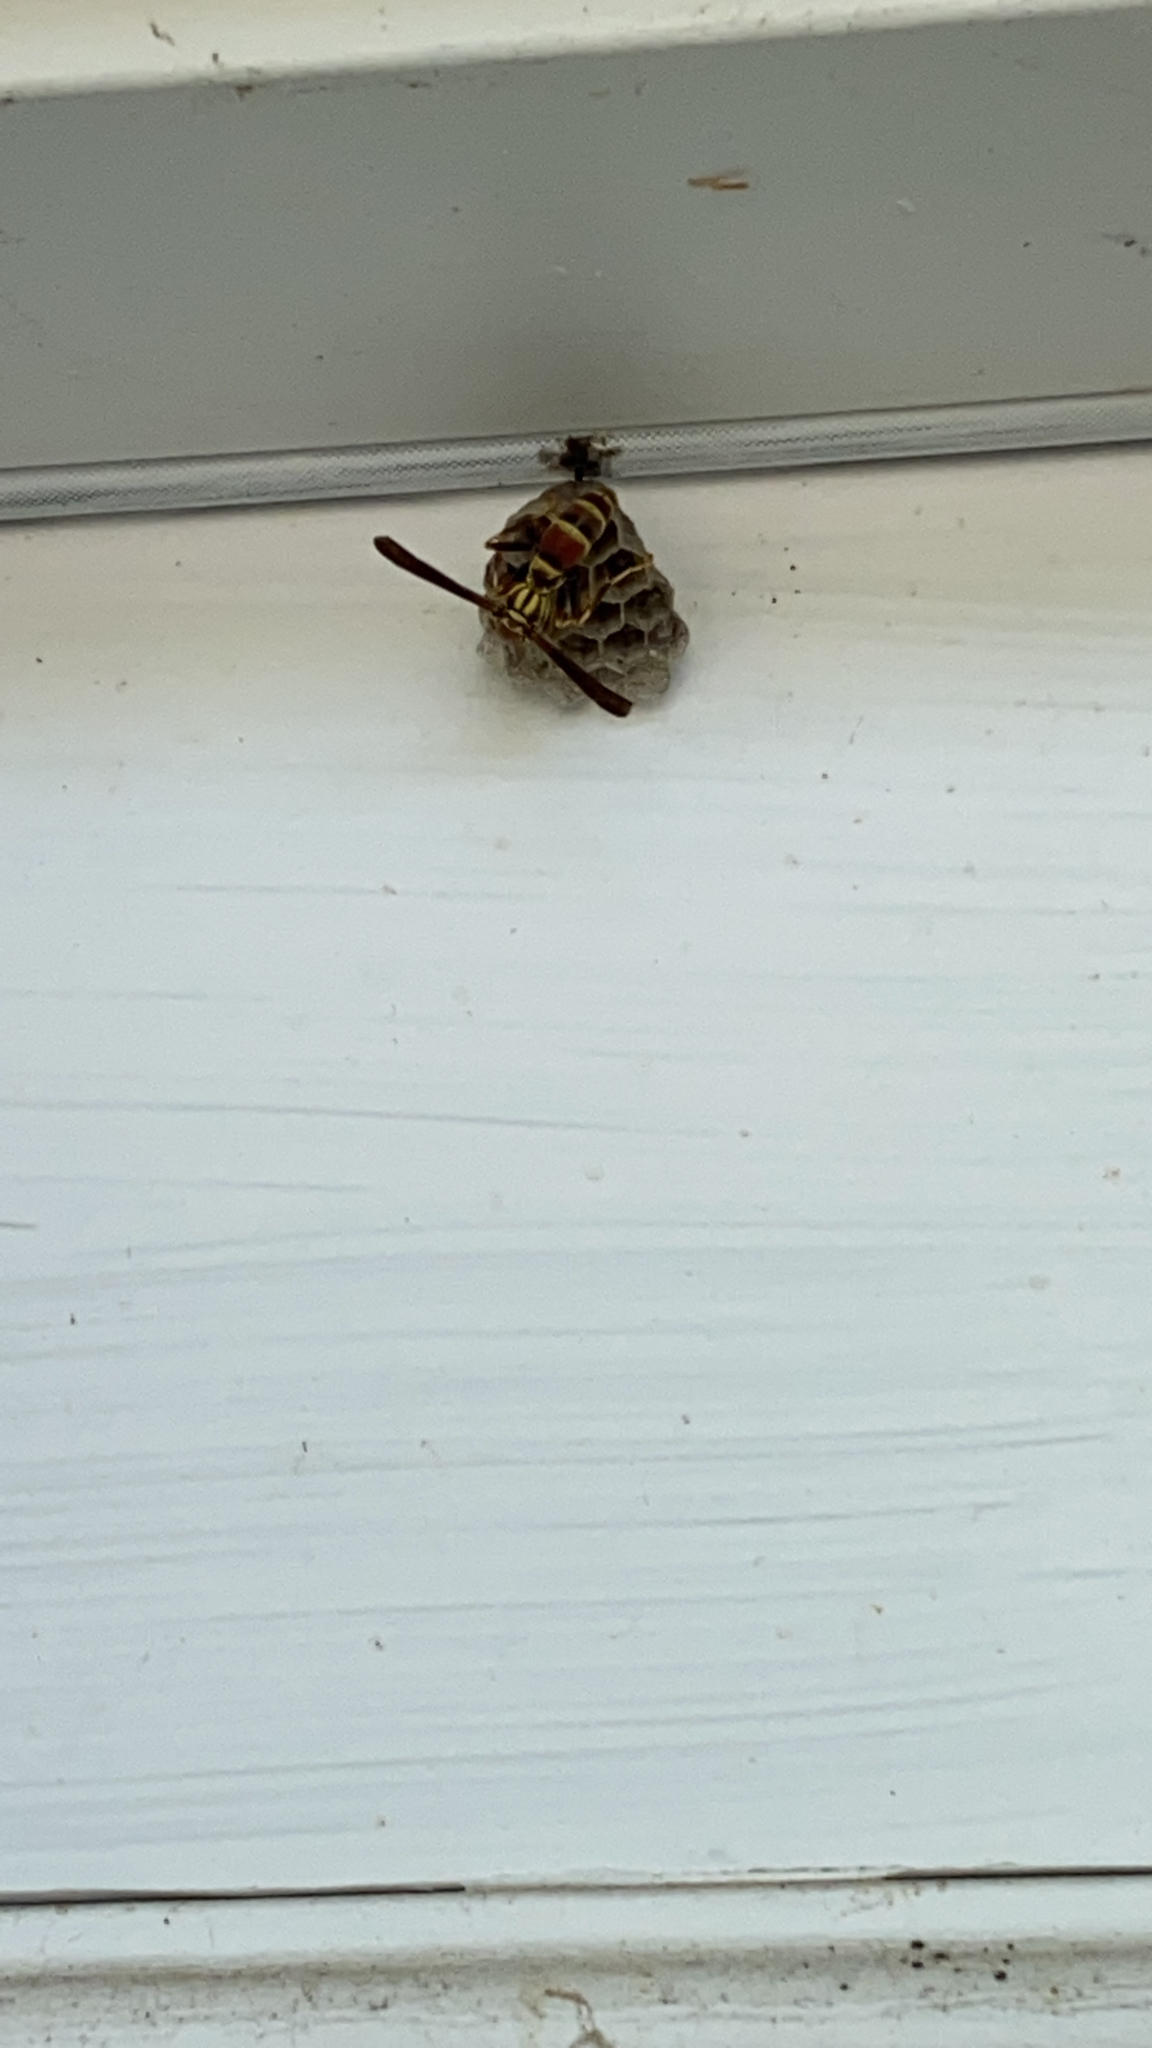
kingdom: Animalia
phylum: Arthropoda
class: Insecta
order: Hymenoptera
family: Eumenidae
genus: Polistes
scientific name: Polistes exclamans
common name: Paper wasp
